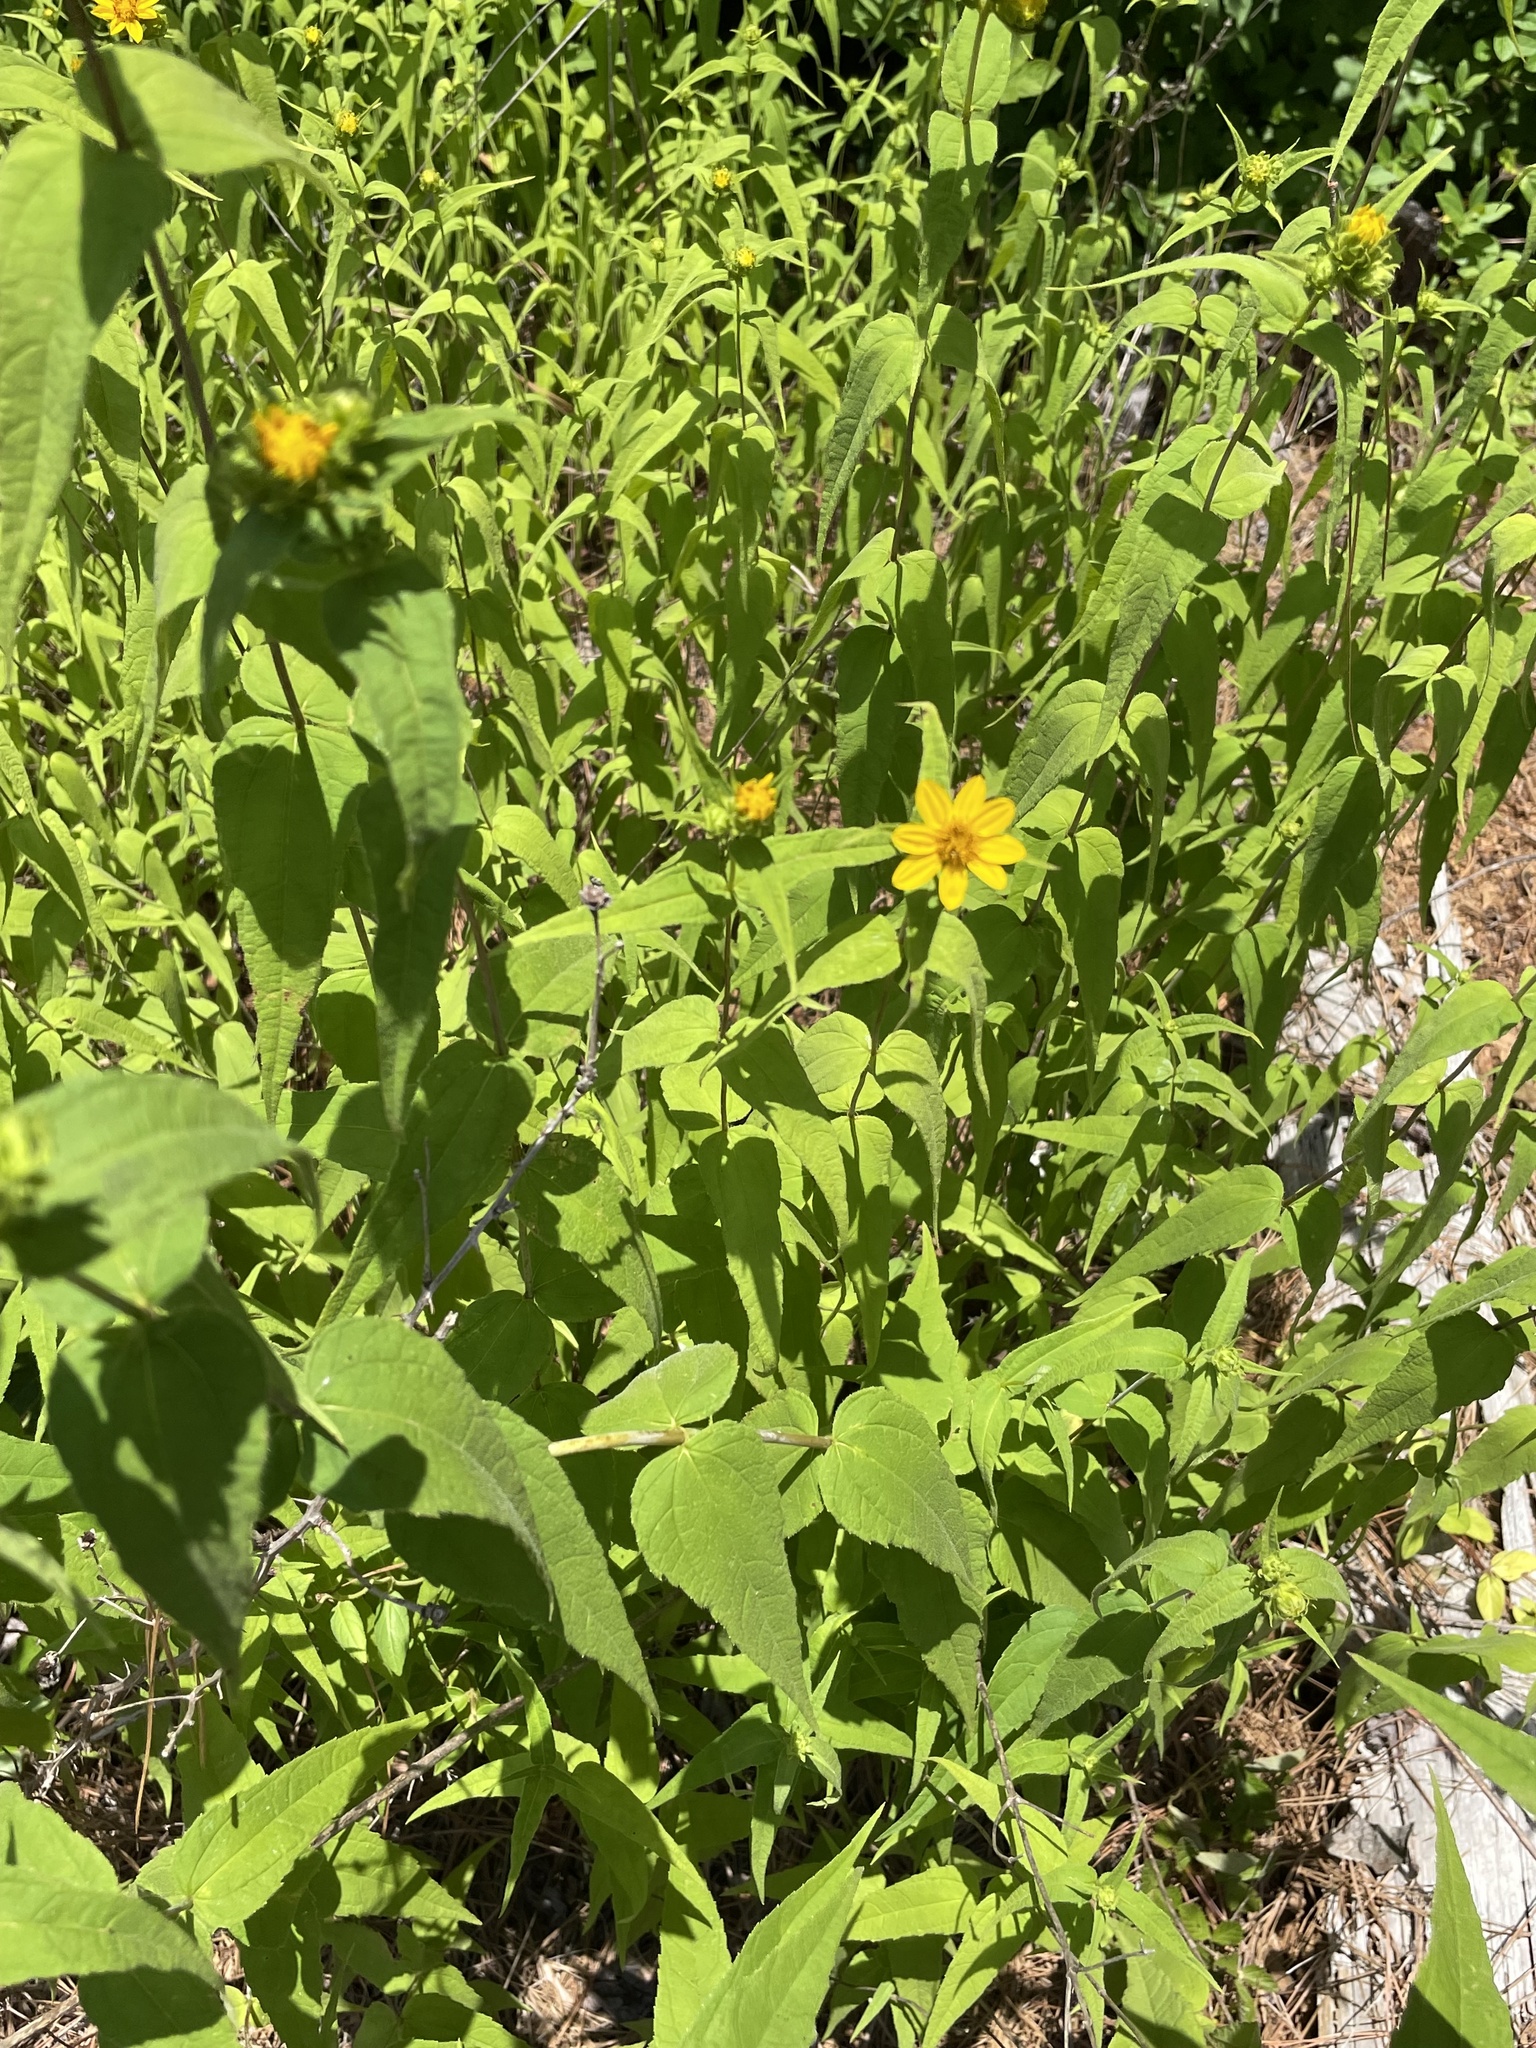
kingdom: Plantae
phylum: Tracheophyta
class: Magnoliopsida
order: Asterales
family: Asteraceae
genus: Helianthus
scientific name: Helianthus divaricatus
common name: Divergent sunflower
